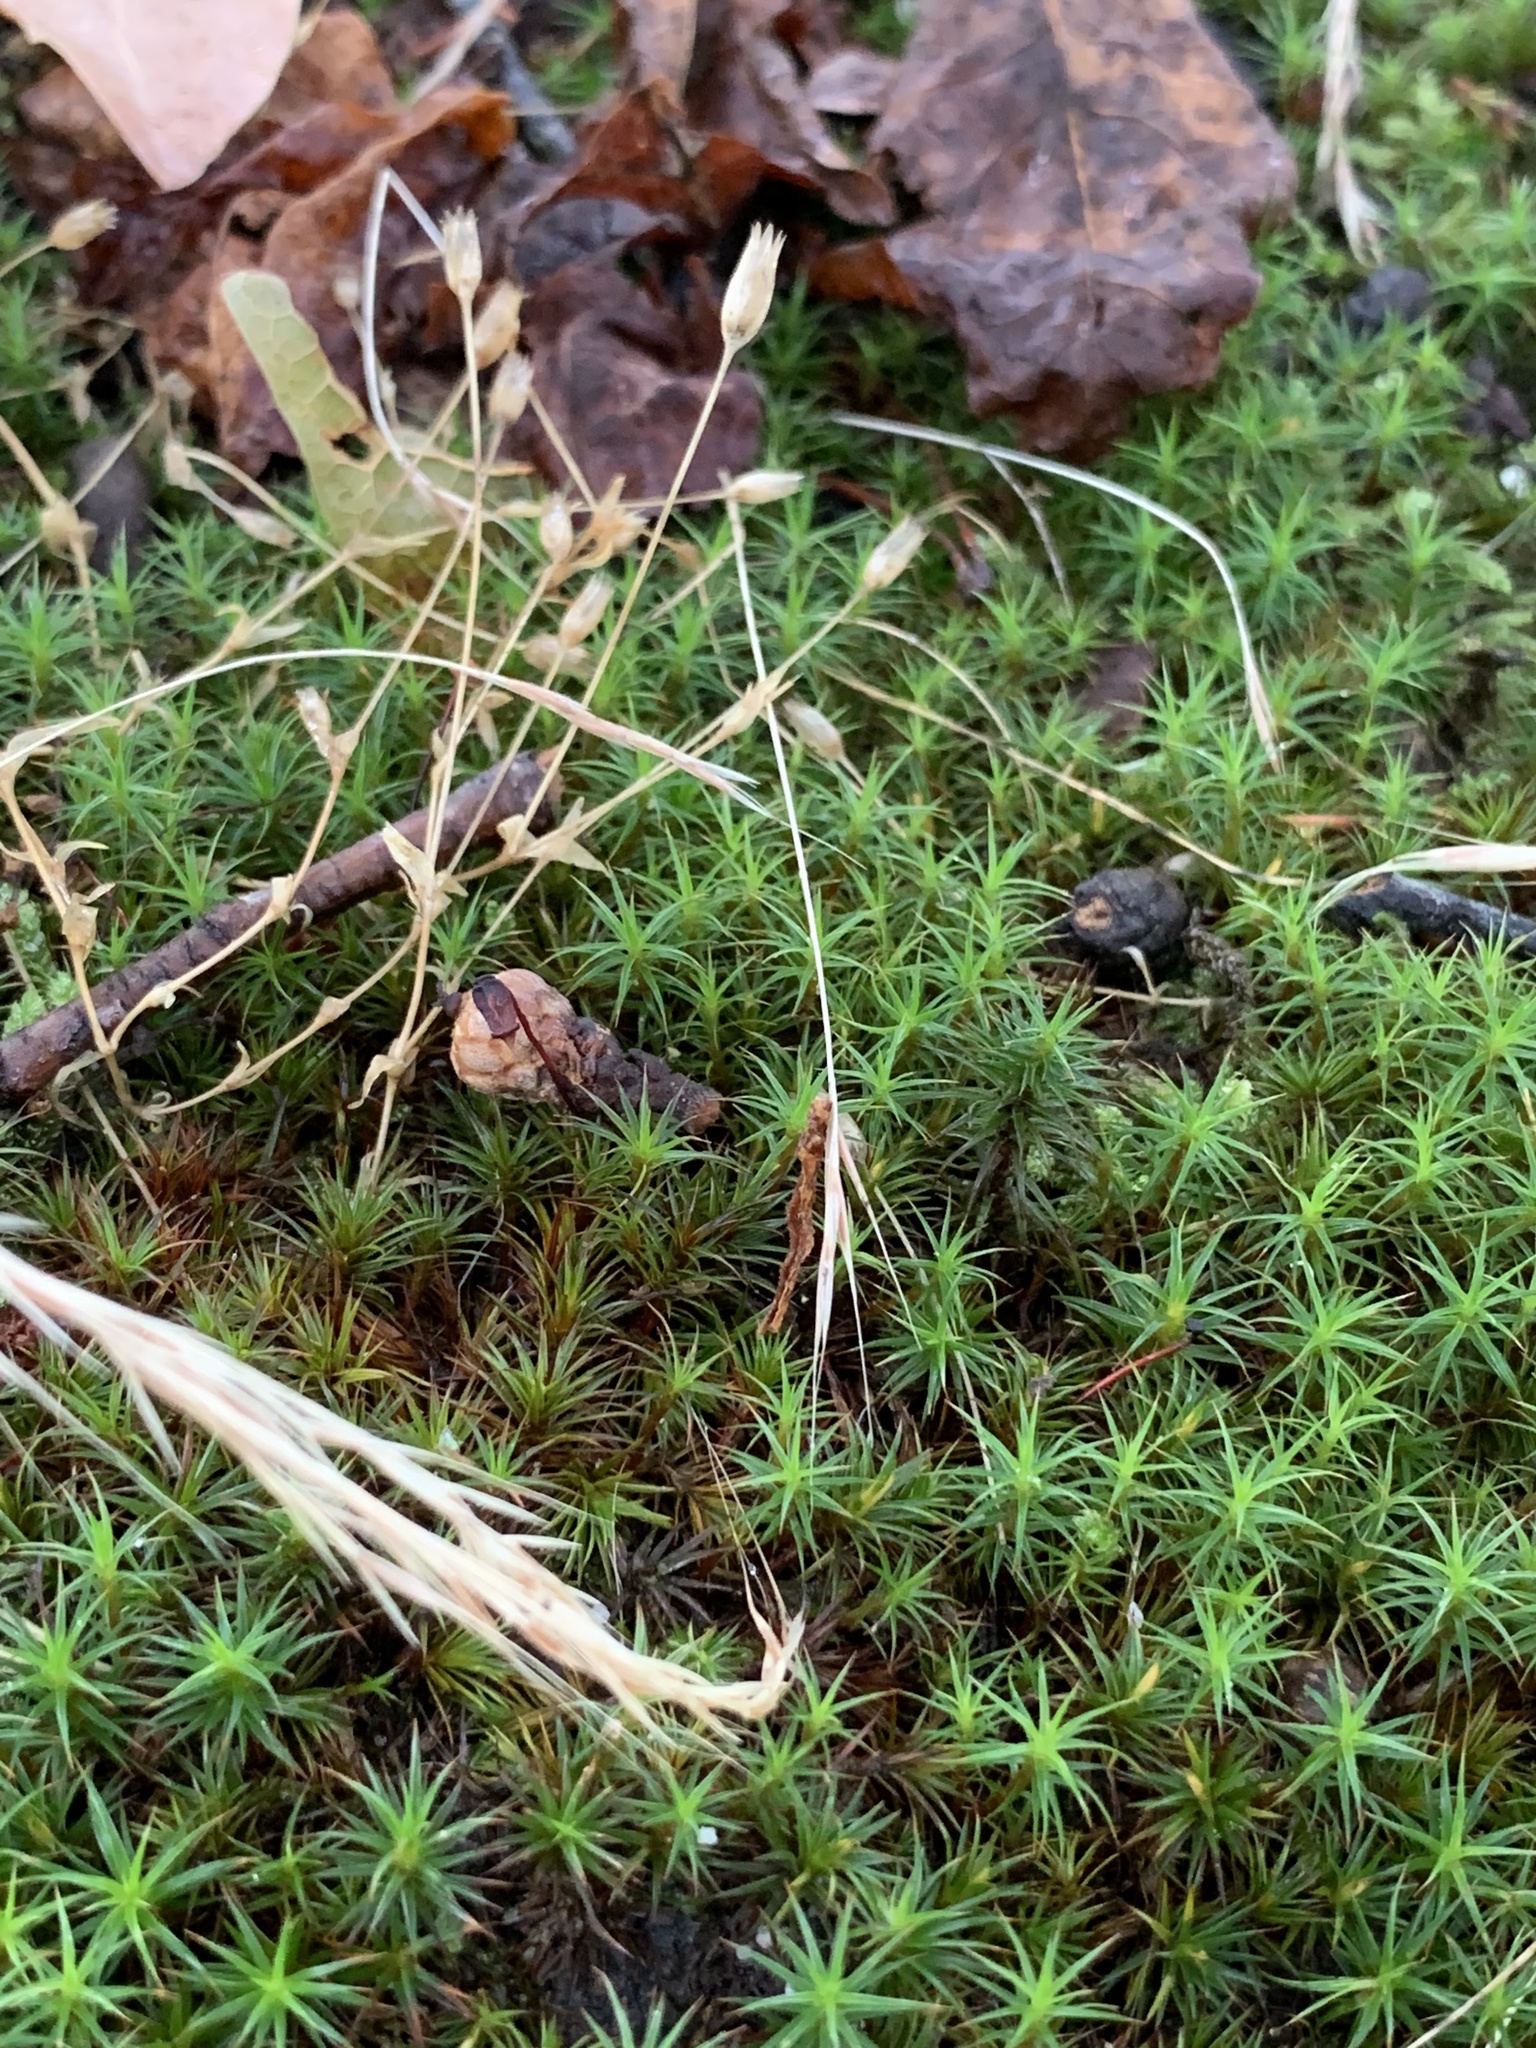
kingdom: Plantae
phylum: Bryophyta
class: Polytrichopsida
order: Polytrichales
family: Polytrichaceae
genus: Polytrichum
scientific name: Polytrichum juniperinum
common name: Juniper haircap moss
